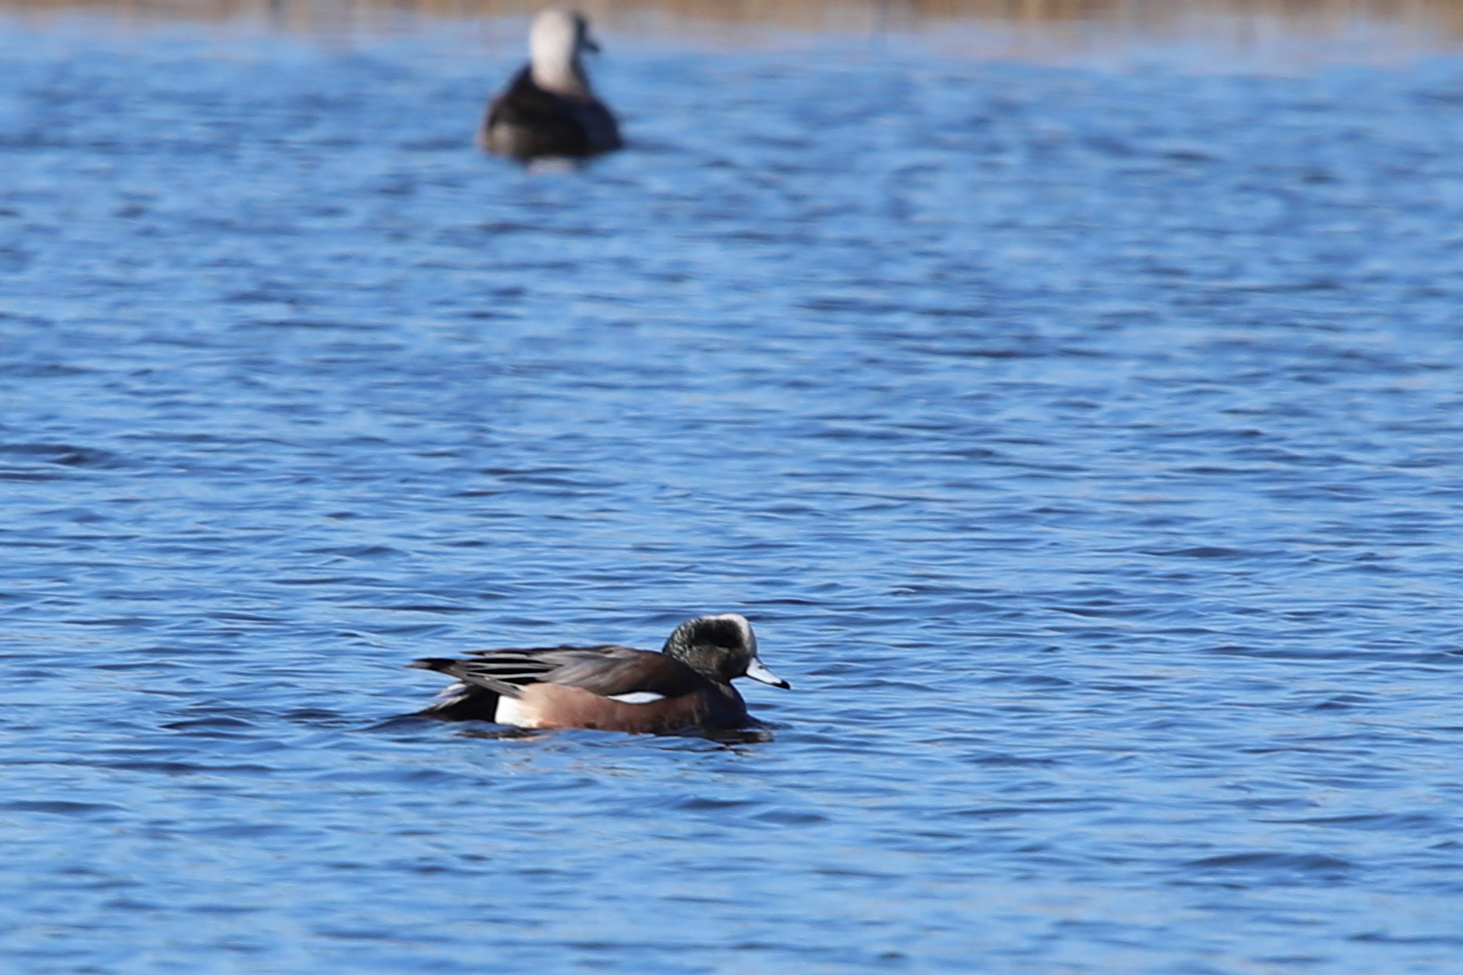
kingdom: Animalia
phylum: Chordata
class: Aves
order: Anseriformes
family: Anatidae
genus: Mareca
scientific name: Mareca americana
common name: American wigeon
